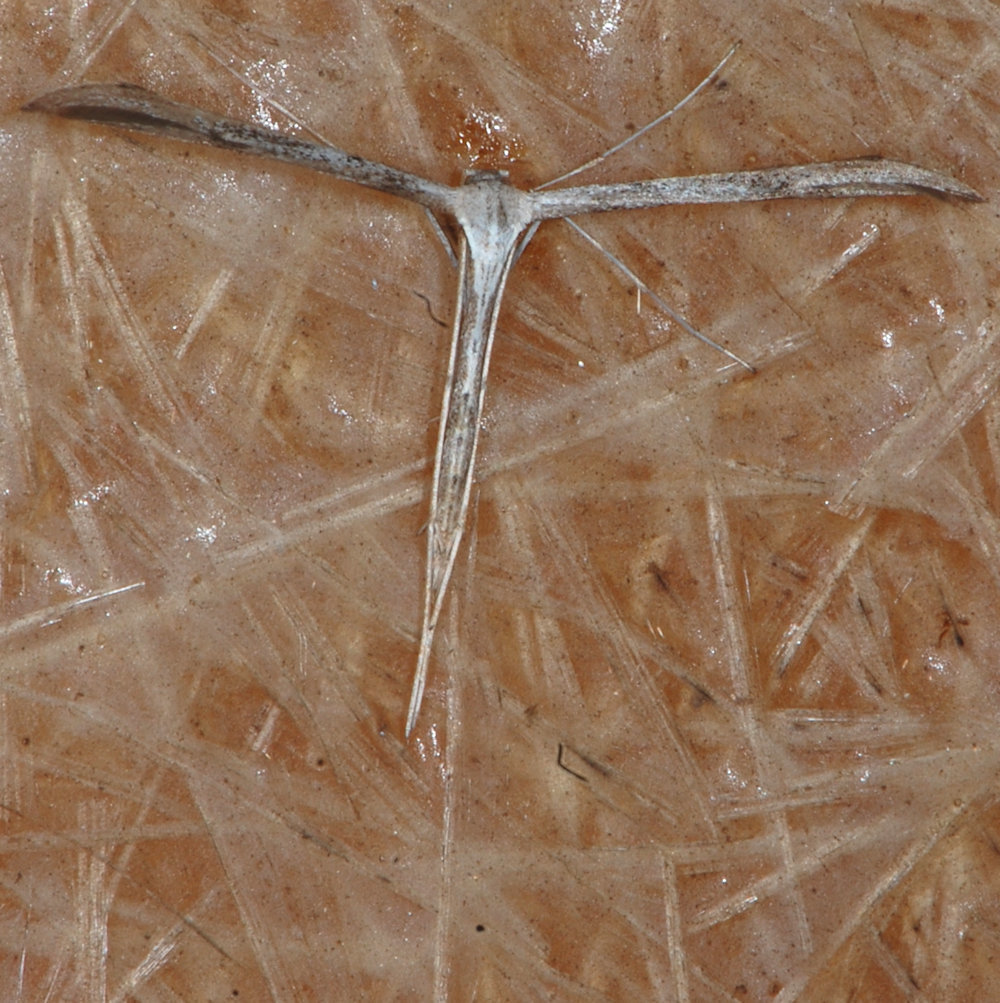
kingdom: Animalia
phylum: Arthropoda
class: Insecta
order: Lepidoptera
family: Pterophoridae
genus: Emmelina
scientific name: Emmelina monodactyla
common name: Common plume
